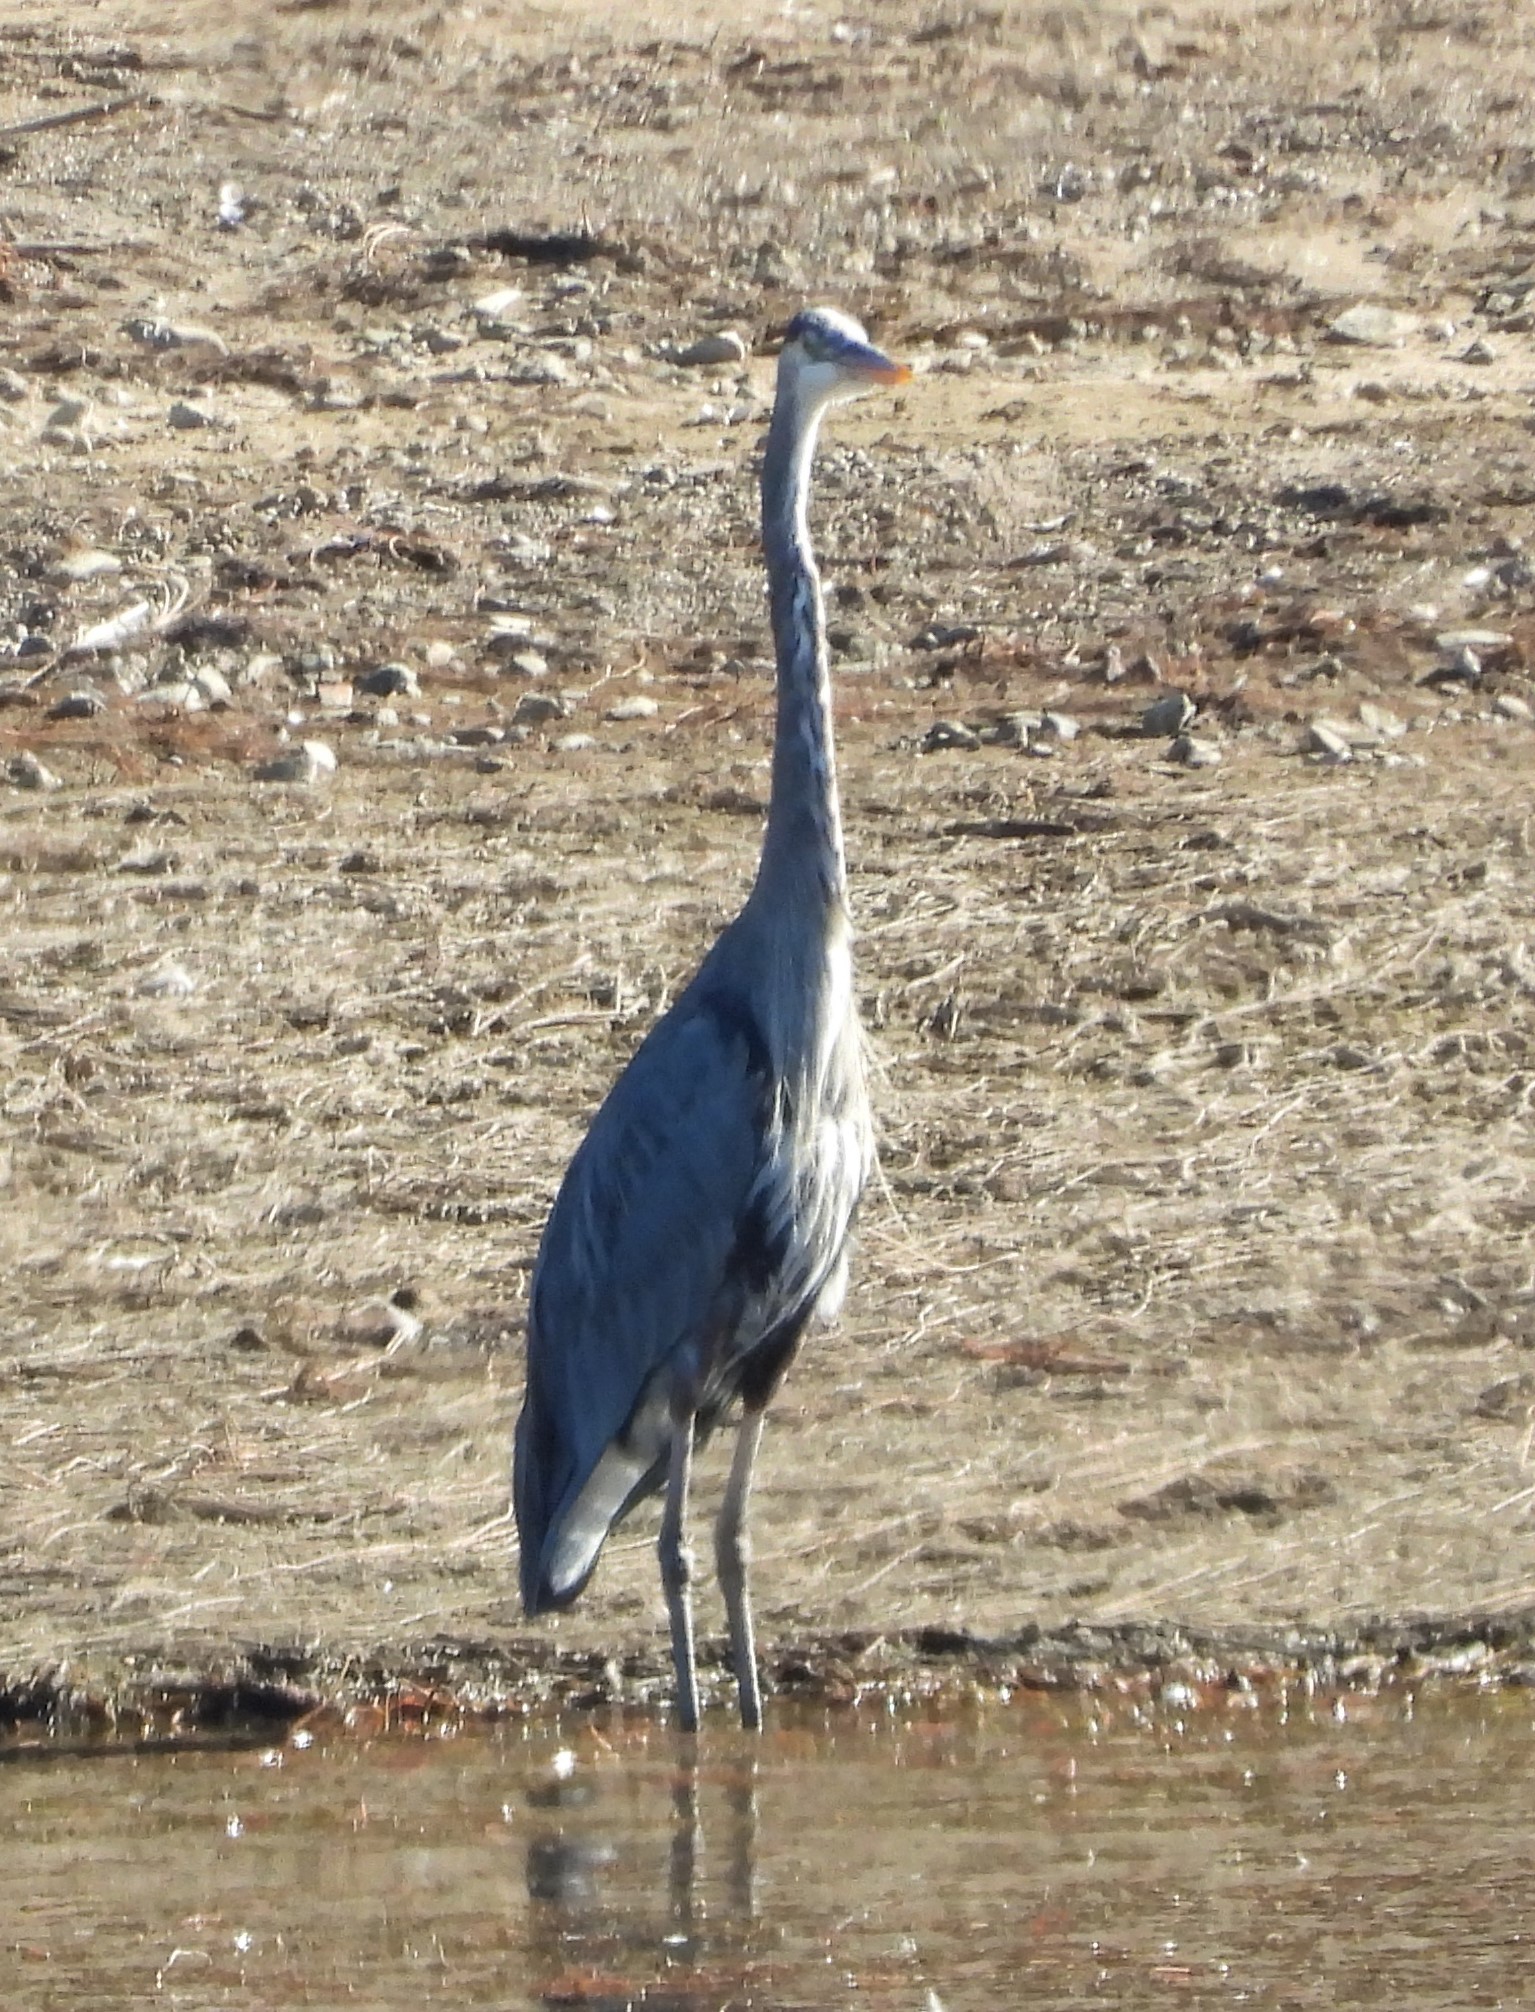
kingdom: Animalia
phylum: Chordata
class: Aves
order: Pelecaniformes
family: Ardeidae
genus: Ardea
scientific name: Ardea herodias
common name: Great blue heron
